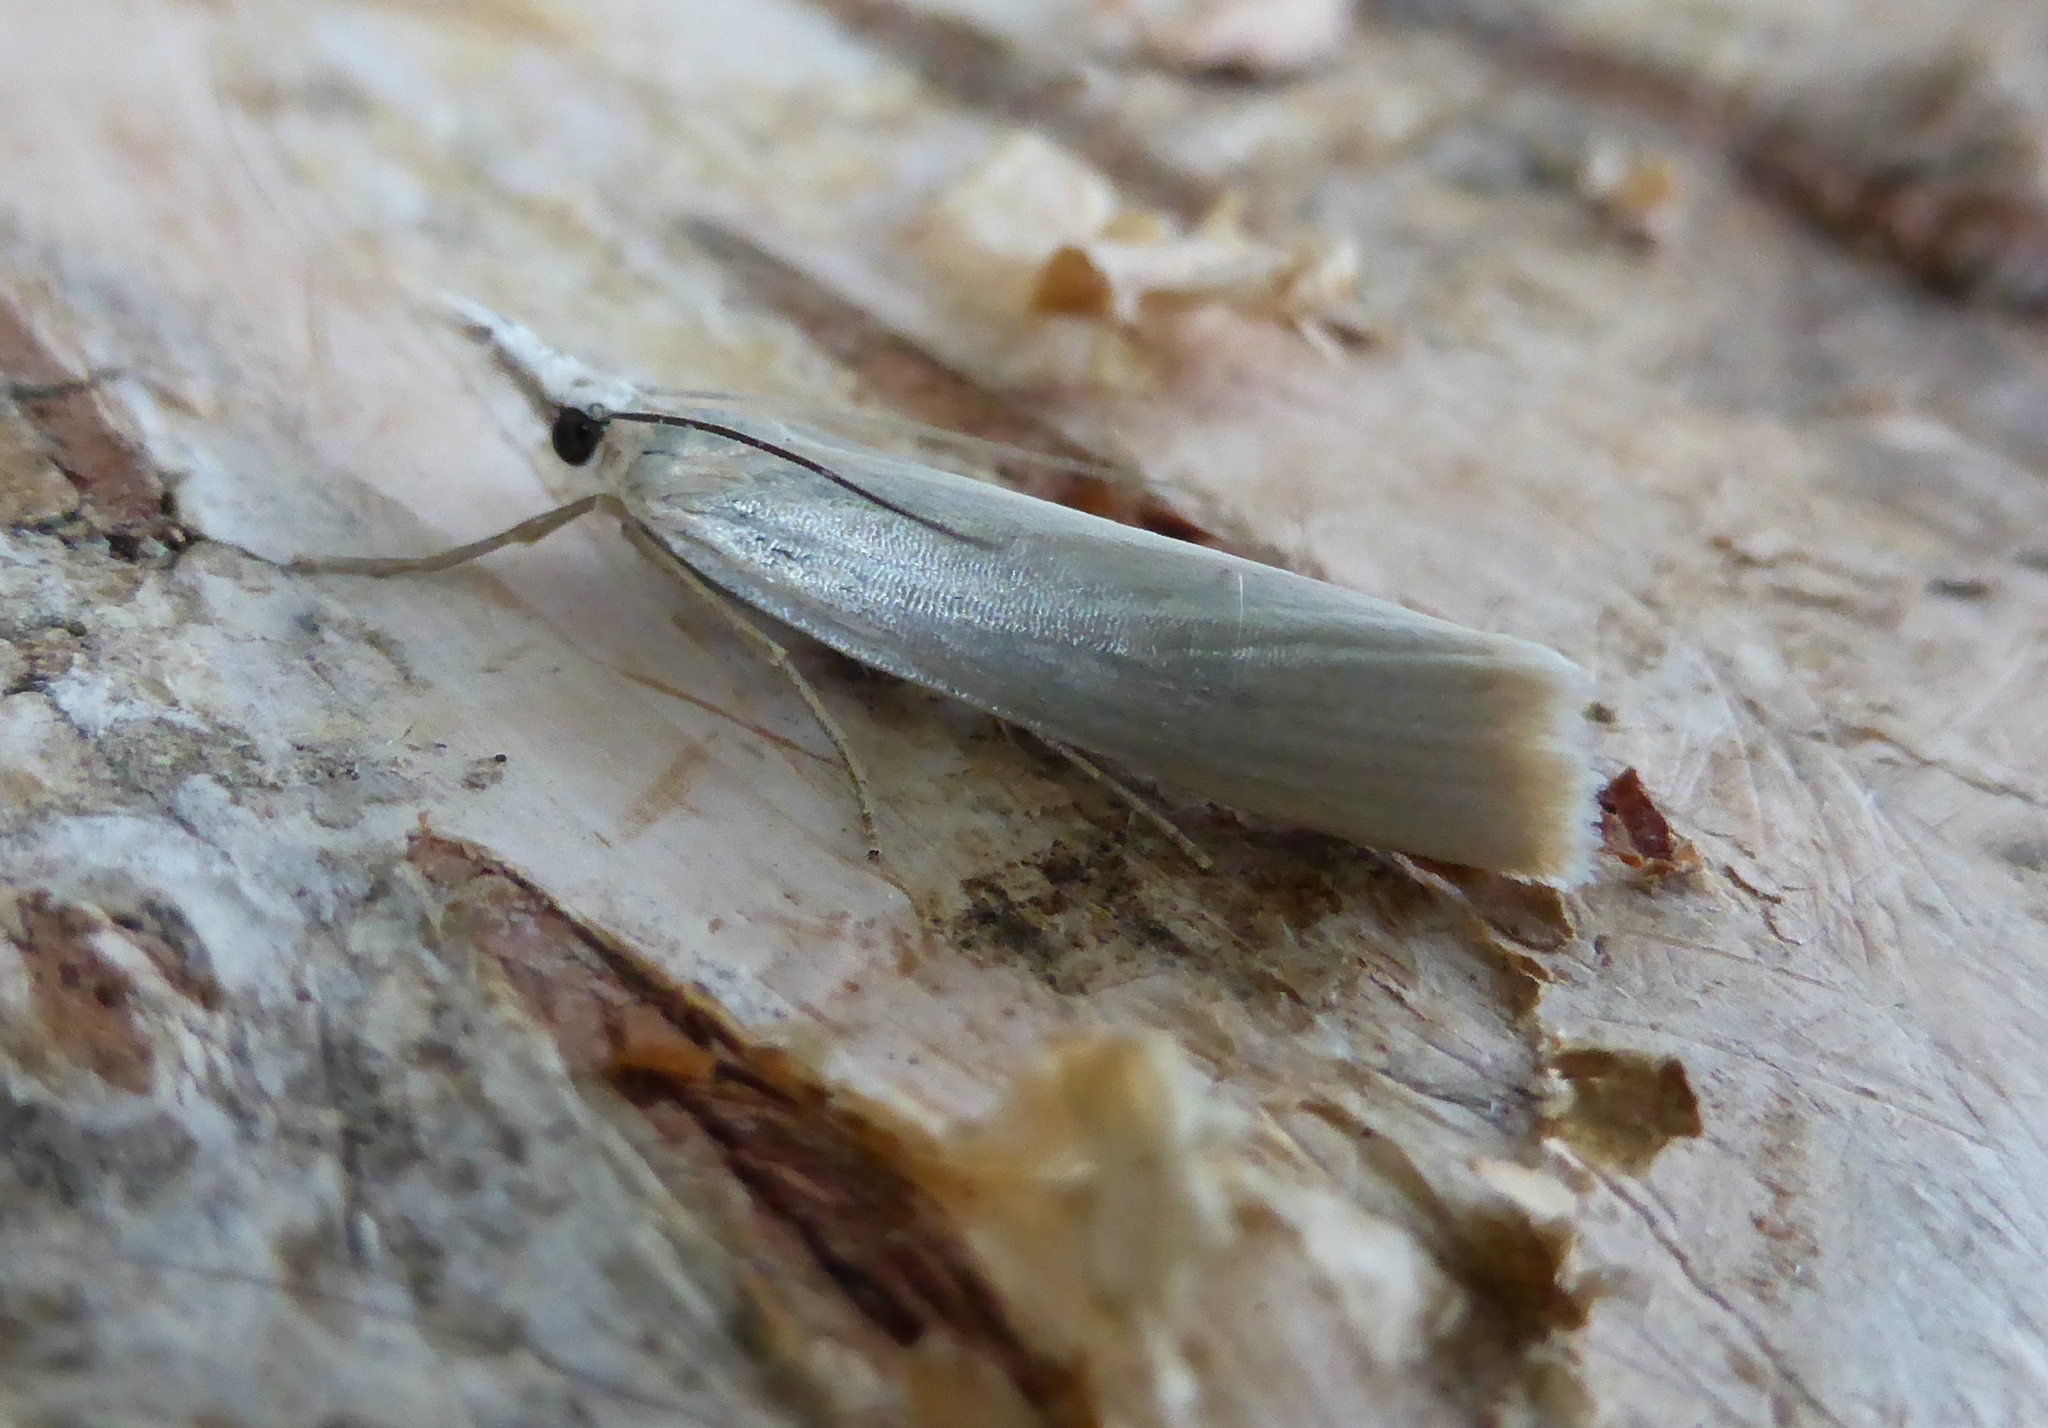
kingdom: Animalia
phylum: Arthropoda
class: Insecta
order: Lepidoptera
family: Crambidae
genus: Crambus
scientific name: Crambus perlellus
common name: Yellow satin veneer
